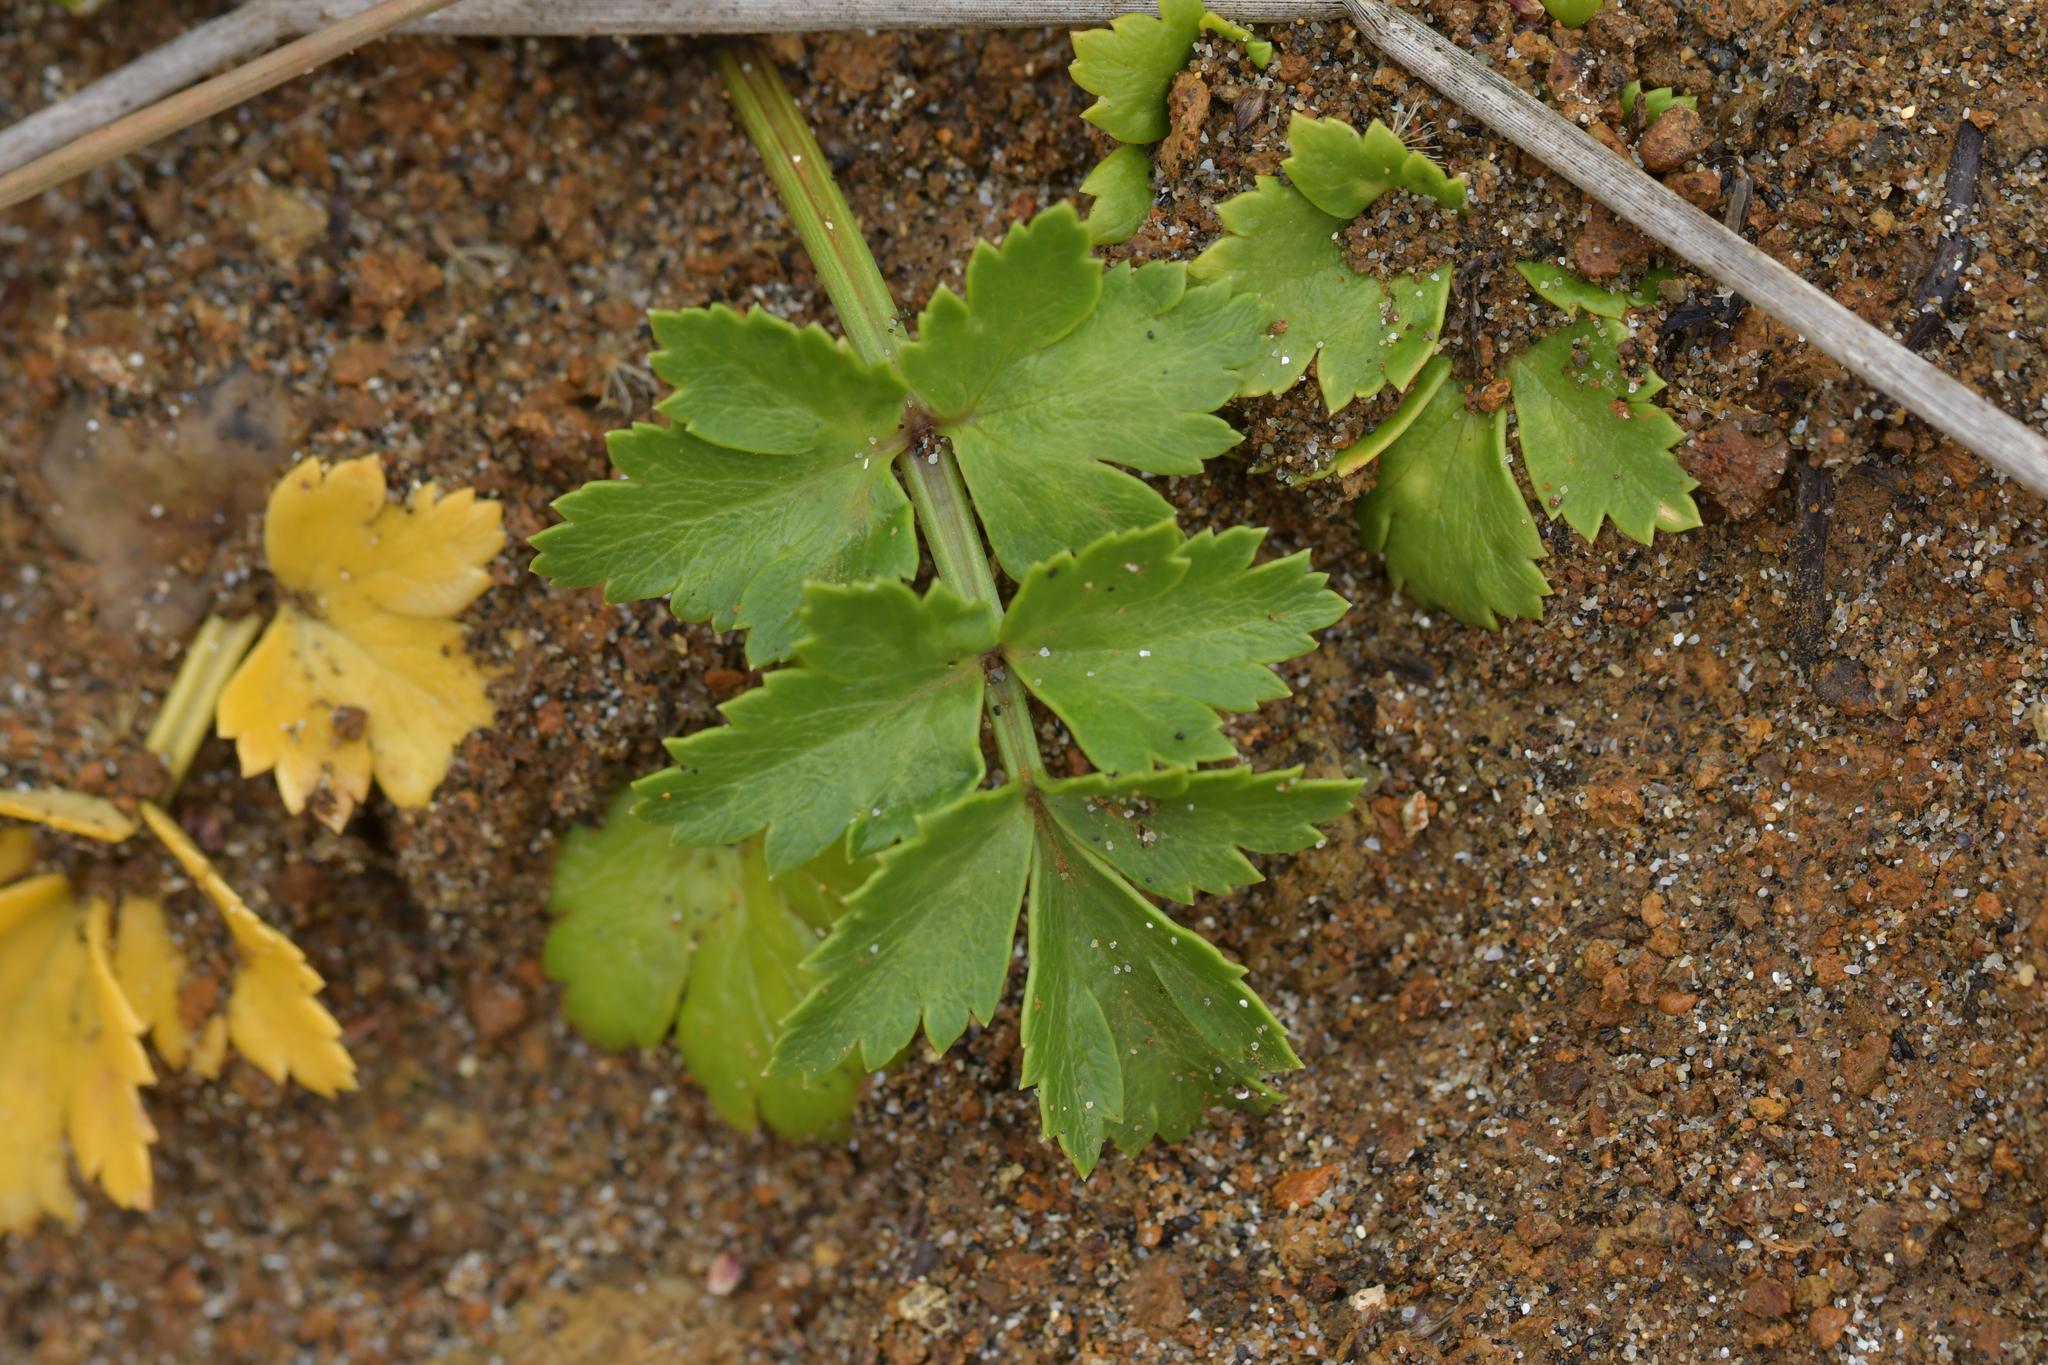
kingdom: Plantae
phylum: Tracheophyta
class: Magnoliopsida
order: Apiales
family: Apiaceae
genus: Apium
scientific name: Apium prostratum
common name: Prostrate marshwort
